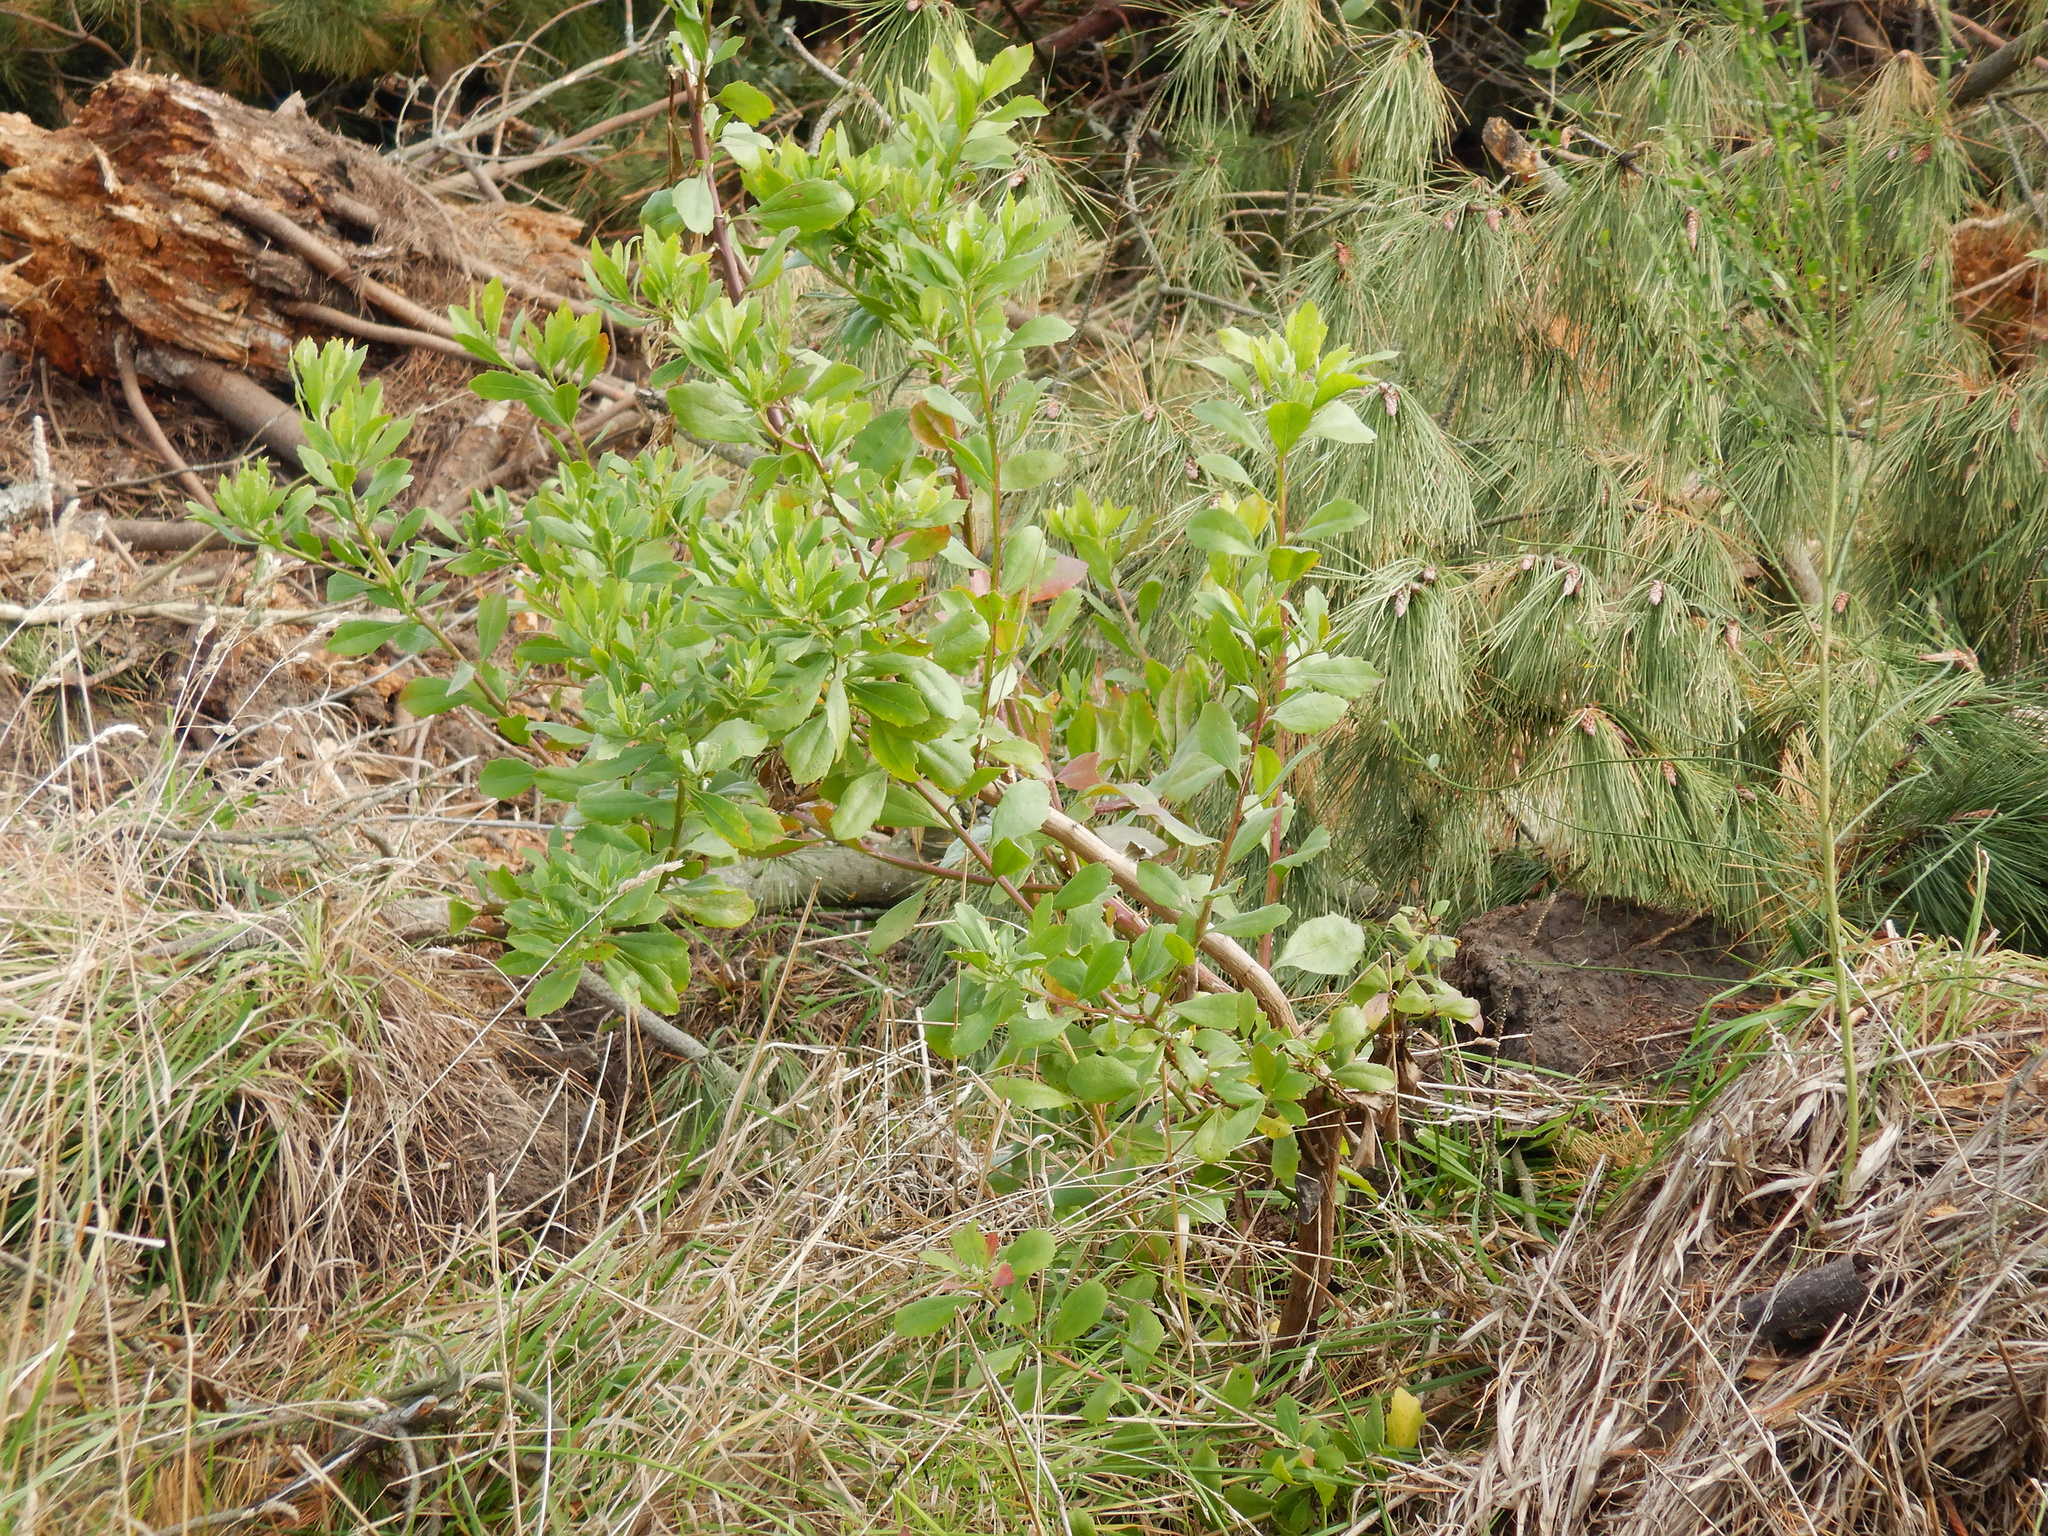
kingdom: Plantae
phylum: Tracheophyta
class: Magnoliopsida
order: Asterales
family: Asteraceae
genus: Osteospermum
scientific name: Osteospermum moniliferum
